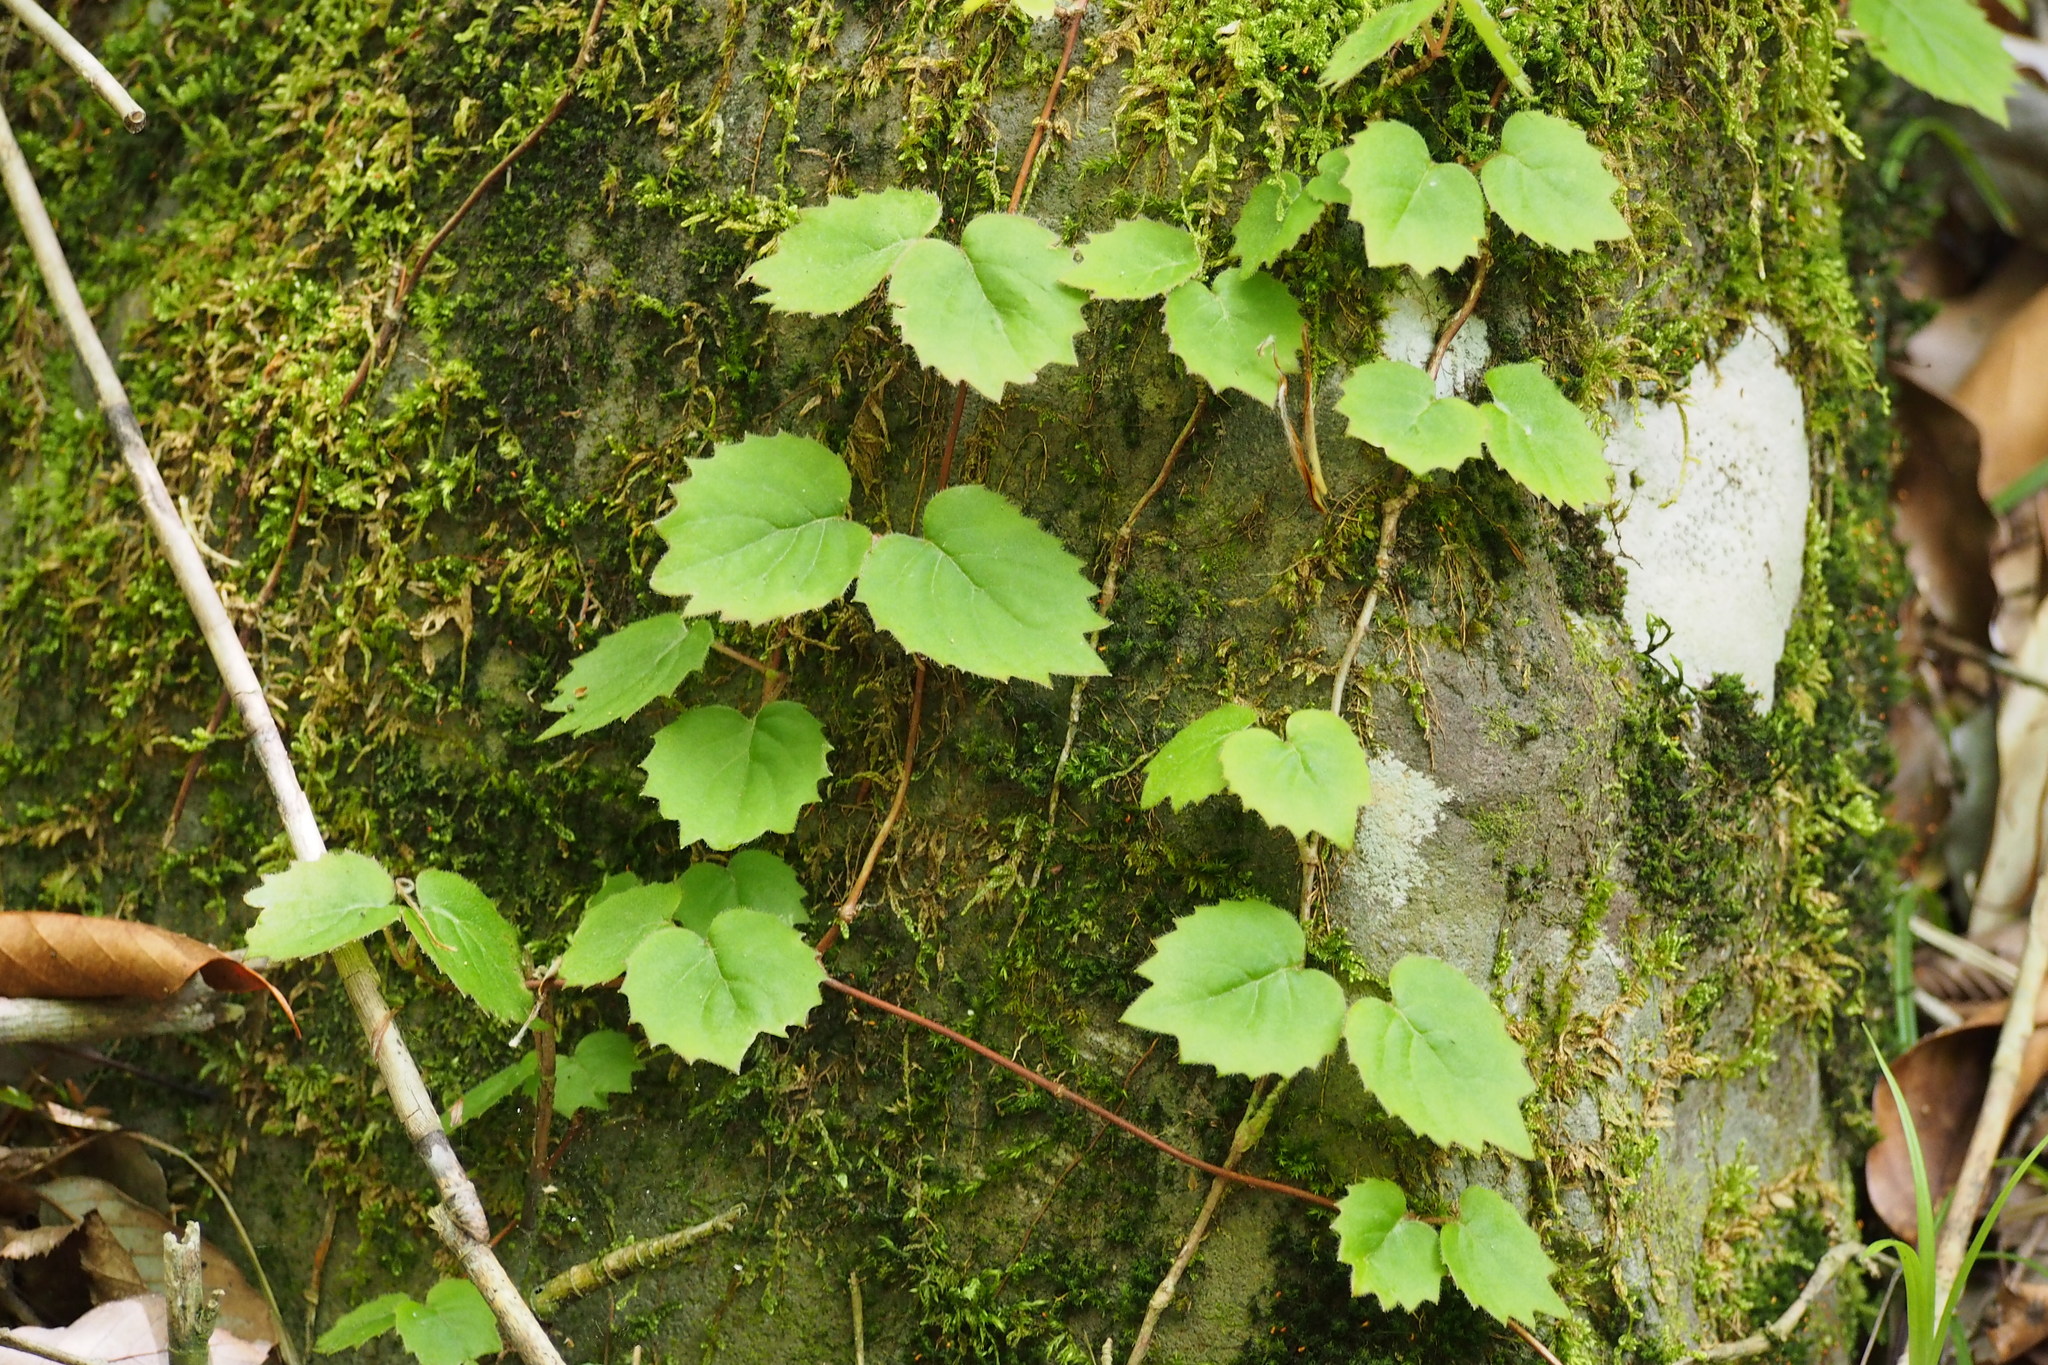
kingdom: Plantae
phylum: Tracheophyta
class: Magnoliopsida
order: Cornales
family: Hydrangeaceae
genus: Hydrangea
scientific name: Hydrangea hydrangeoides
